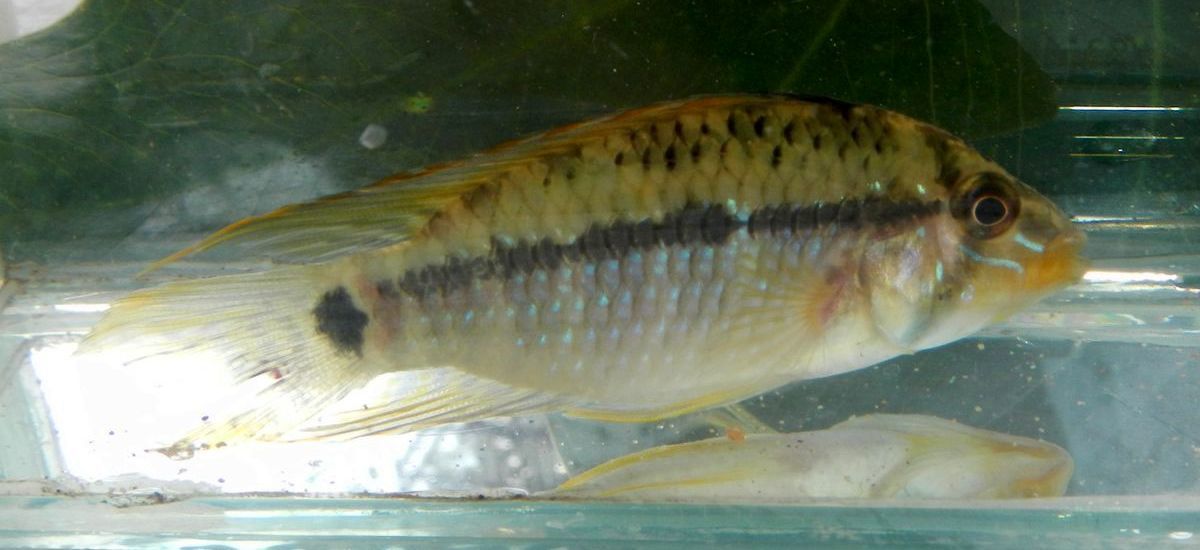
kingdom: Animalia
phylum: Chordata
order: Perciformes
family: Cichlidae
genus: Apistogramma
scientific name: Apistogramma steindachneri
